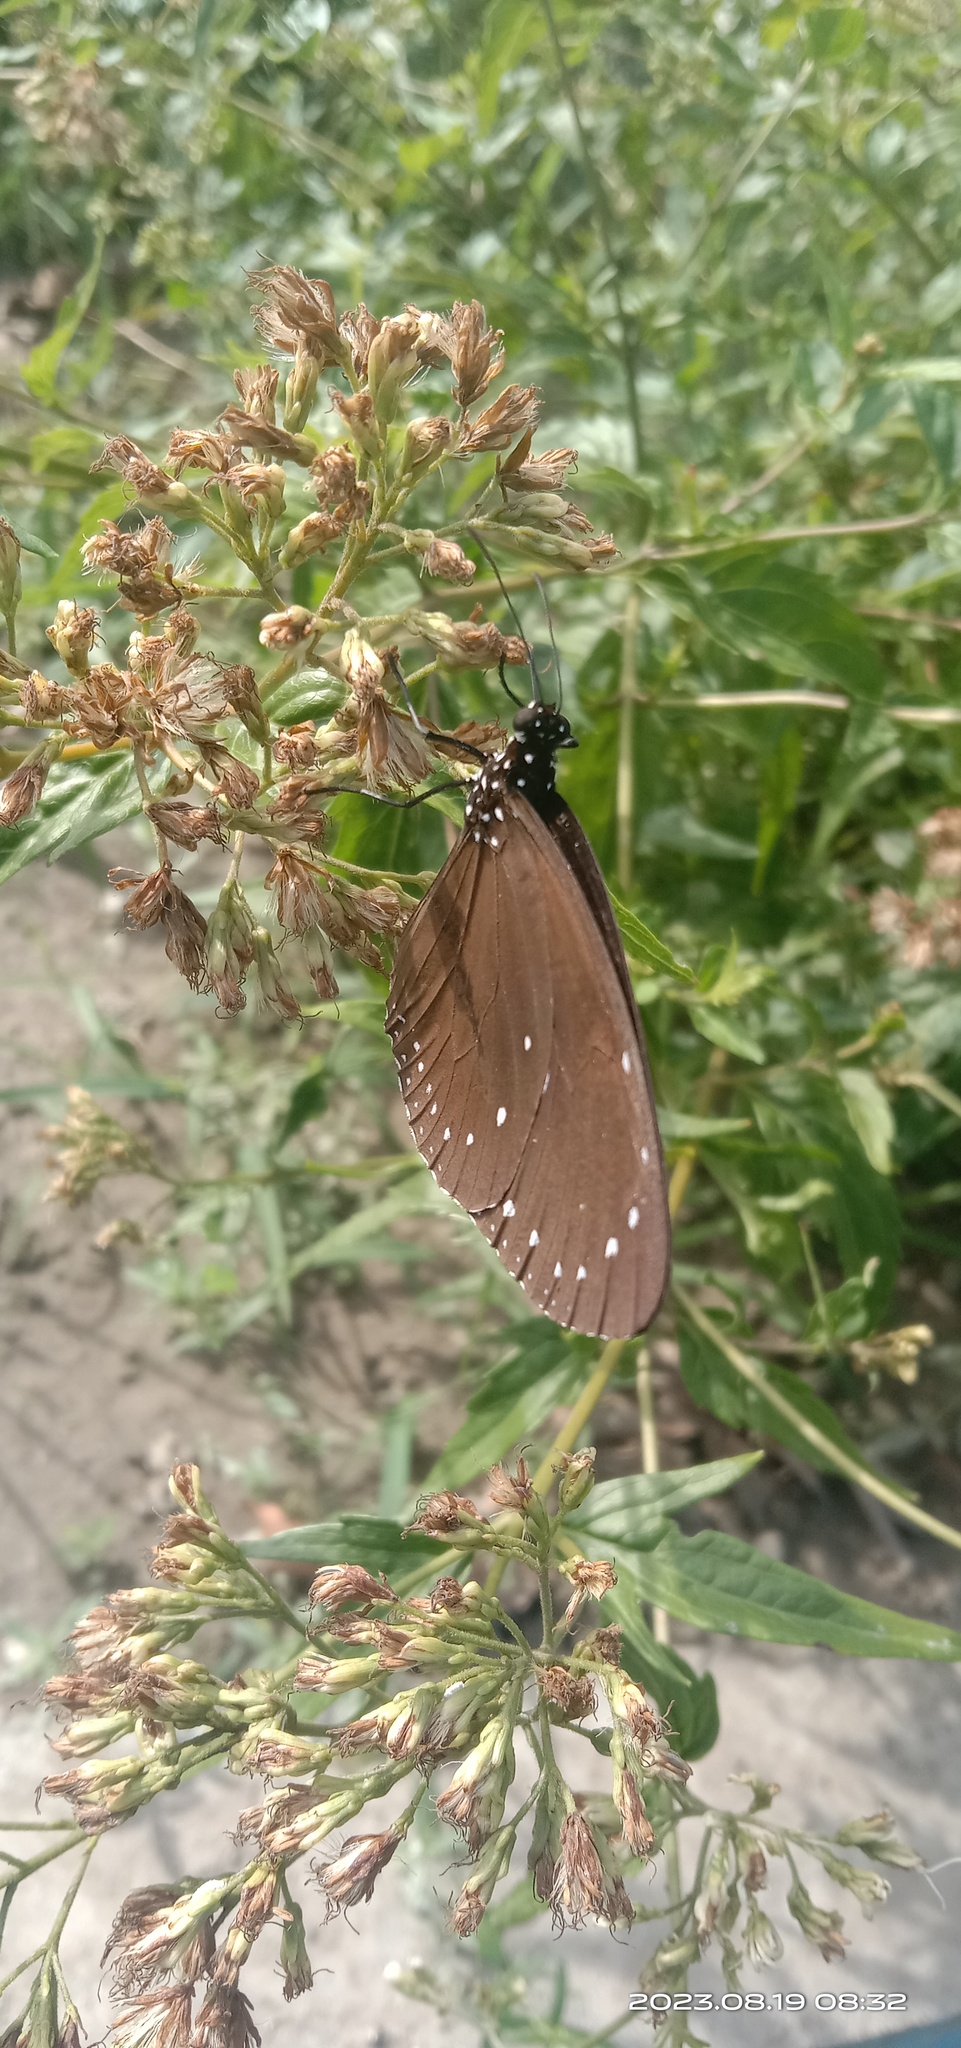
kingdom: Animalia
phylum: Arthropoda
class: Insecta
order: Lepidoptera
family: Nymphalidae
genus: Euploea
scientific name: Euploea tulliolus
